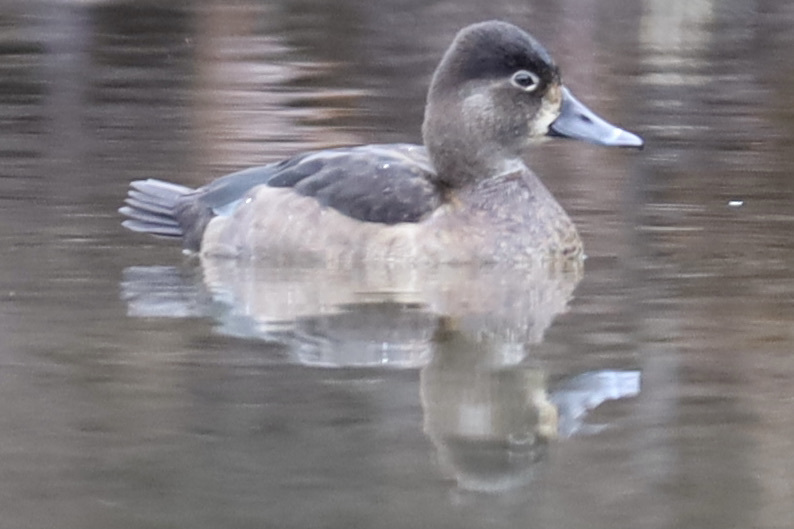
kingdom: Animalia
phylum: Chordata
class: Aves
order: Anseriformes
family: Anatidae
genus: Aythya
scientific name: Aythya collaris
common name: Ring-necked duck
